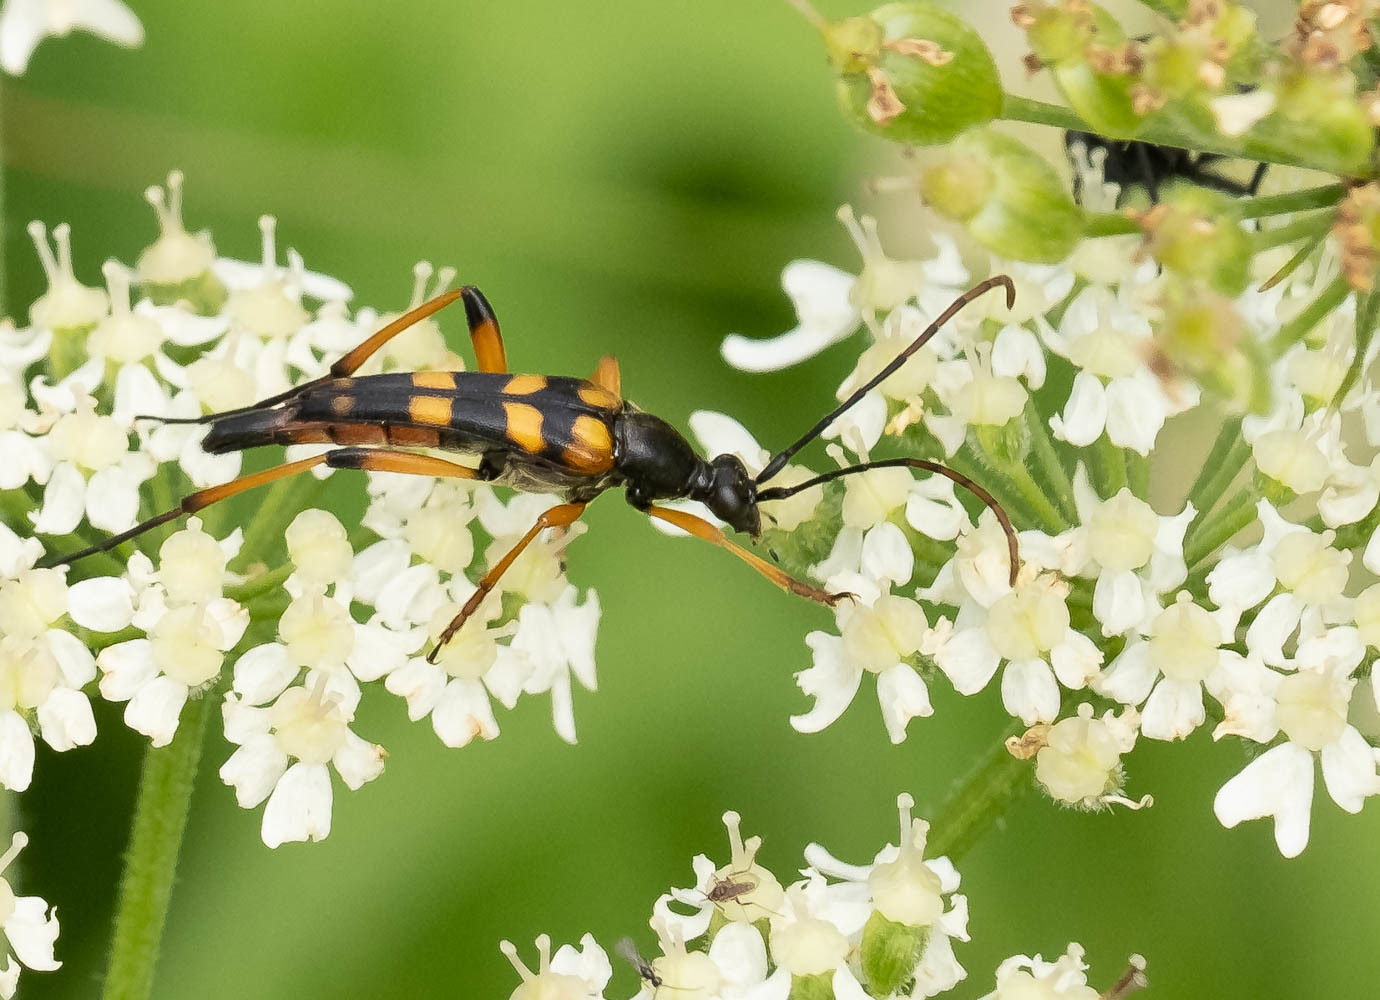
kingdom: Animalia
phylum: Arthropoda
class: Insecta
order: Coleoptera
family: Cerambycidae
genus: Strangalia
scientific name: Strangalia attenuata
